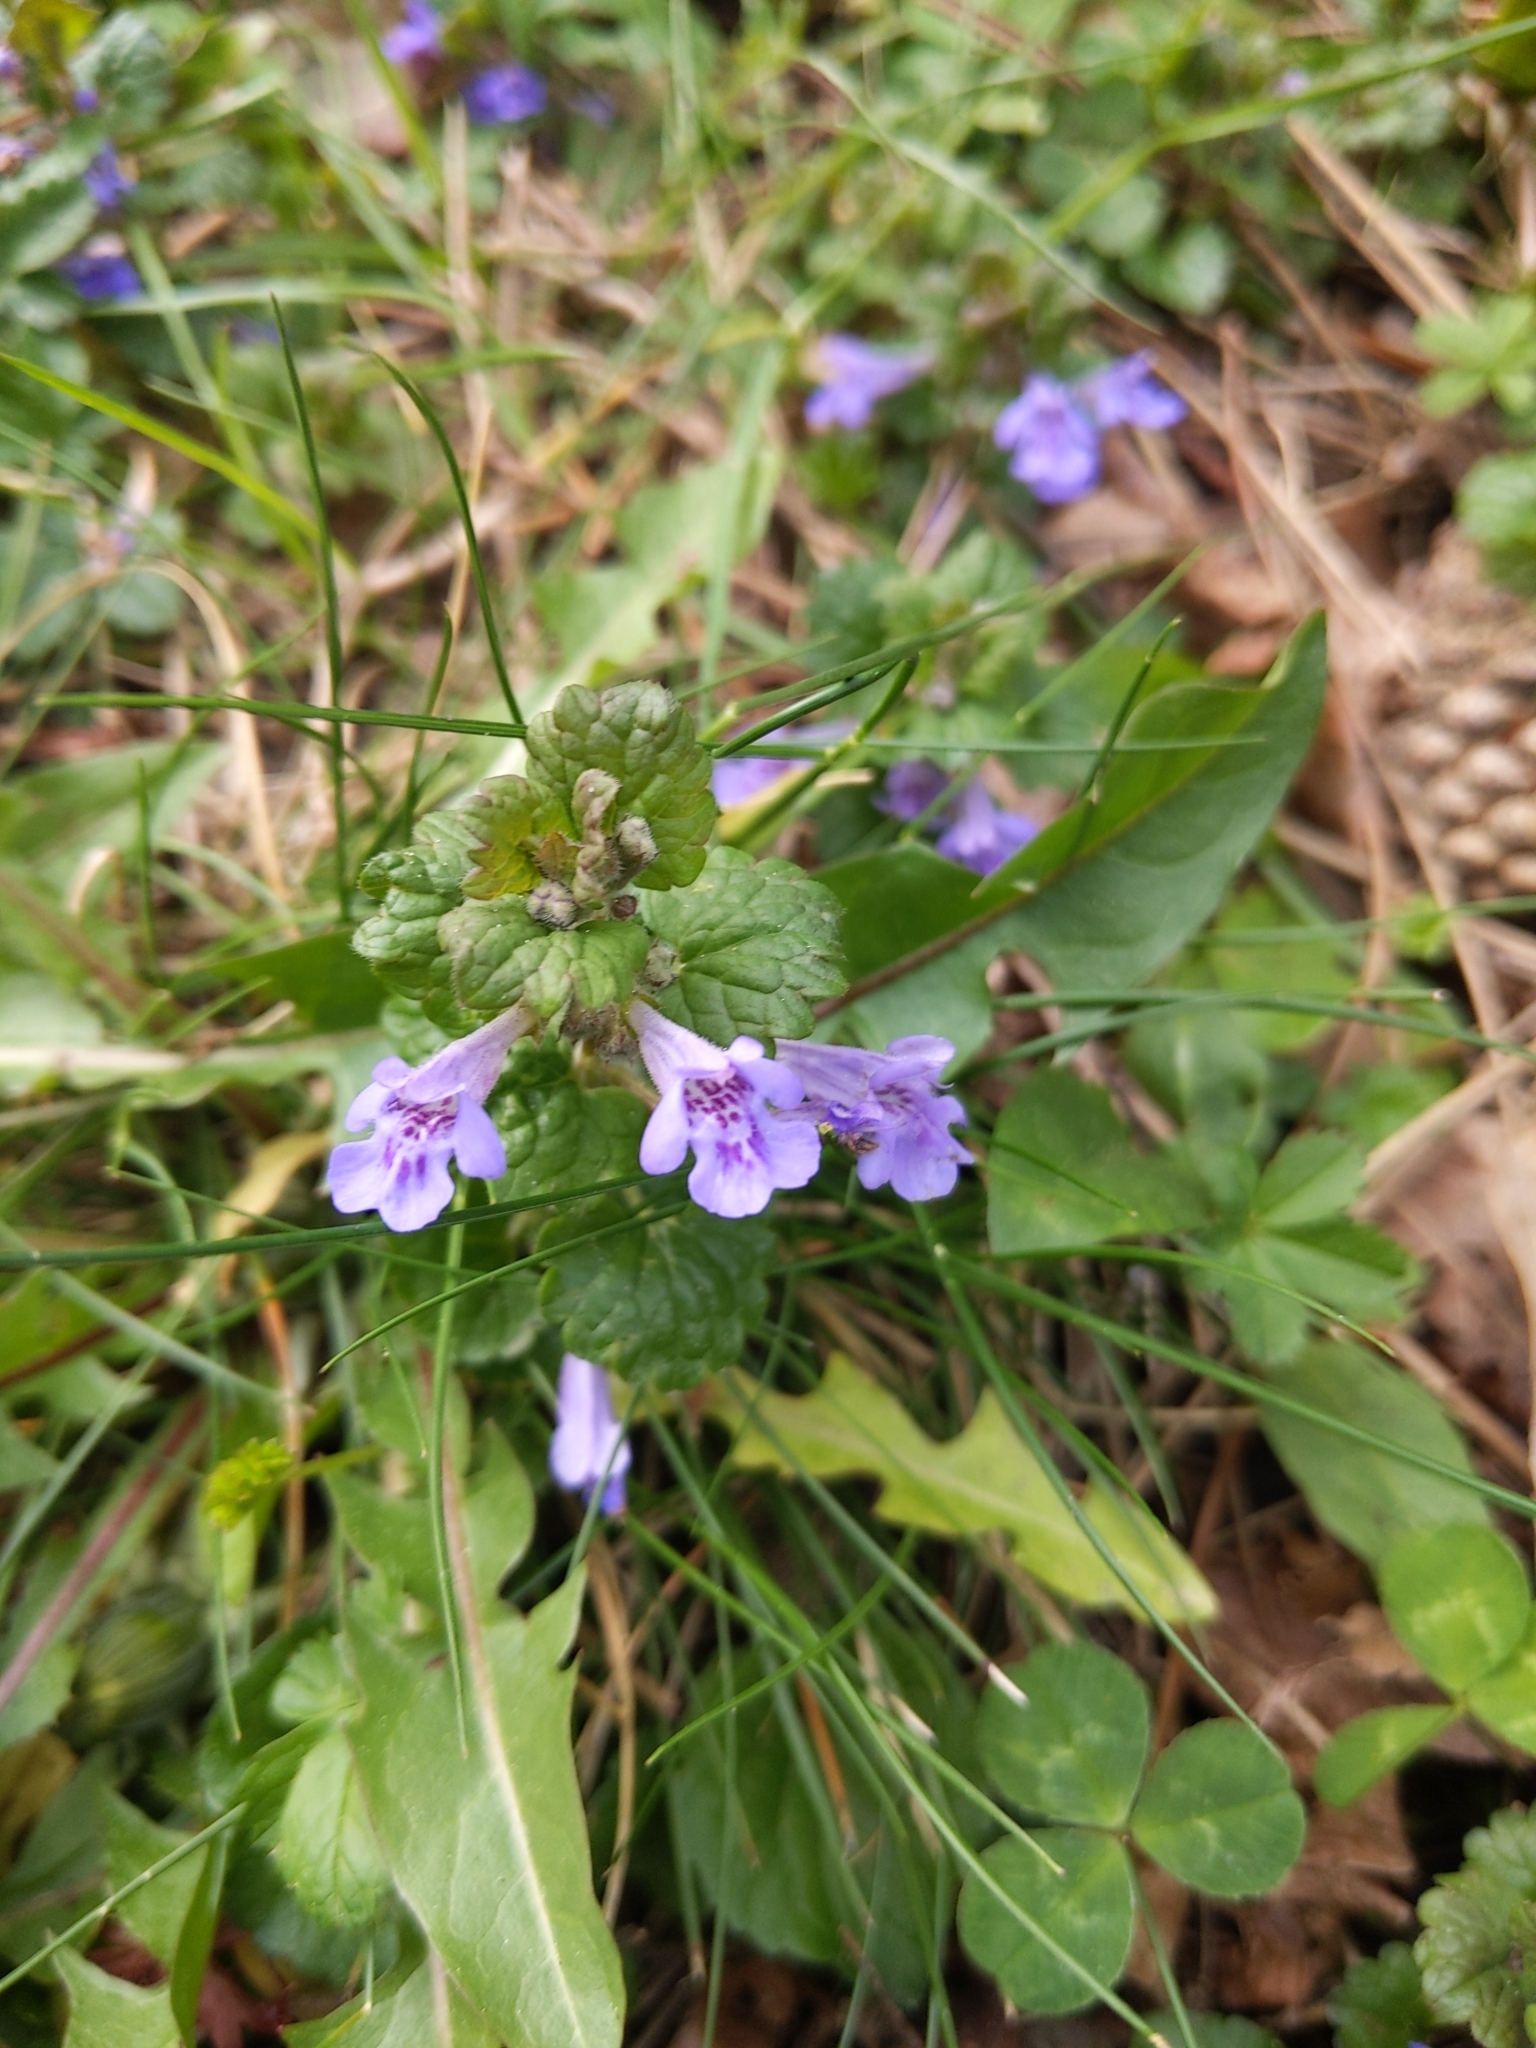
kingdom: Plantae
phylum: Tracheophyta
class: Magnoliopsida
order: Lamiales
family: Lamiaceae
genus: Glechoma
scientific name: Glechoma hederacea
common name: Ground ivy
